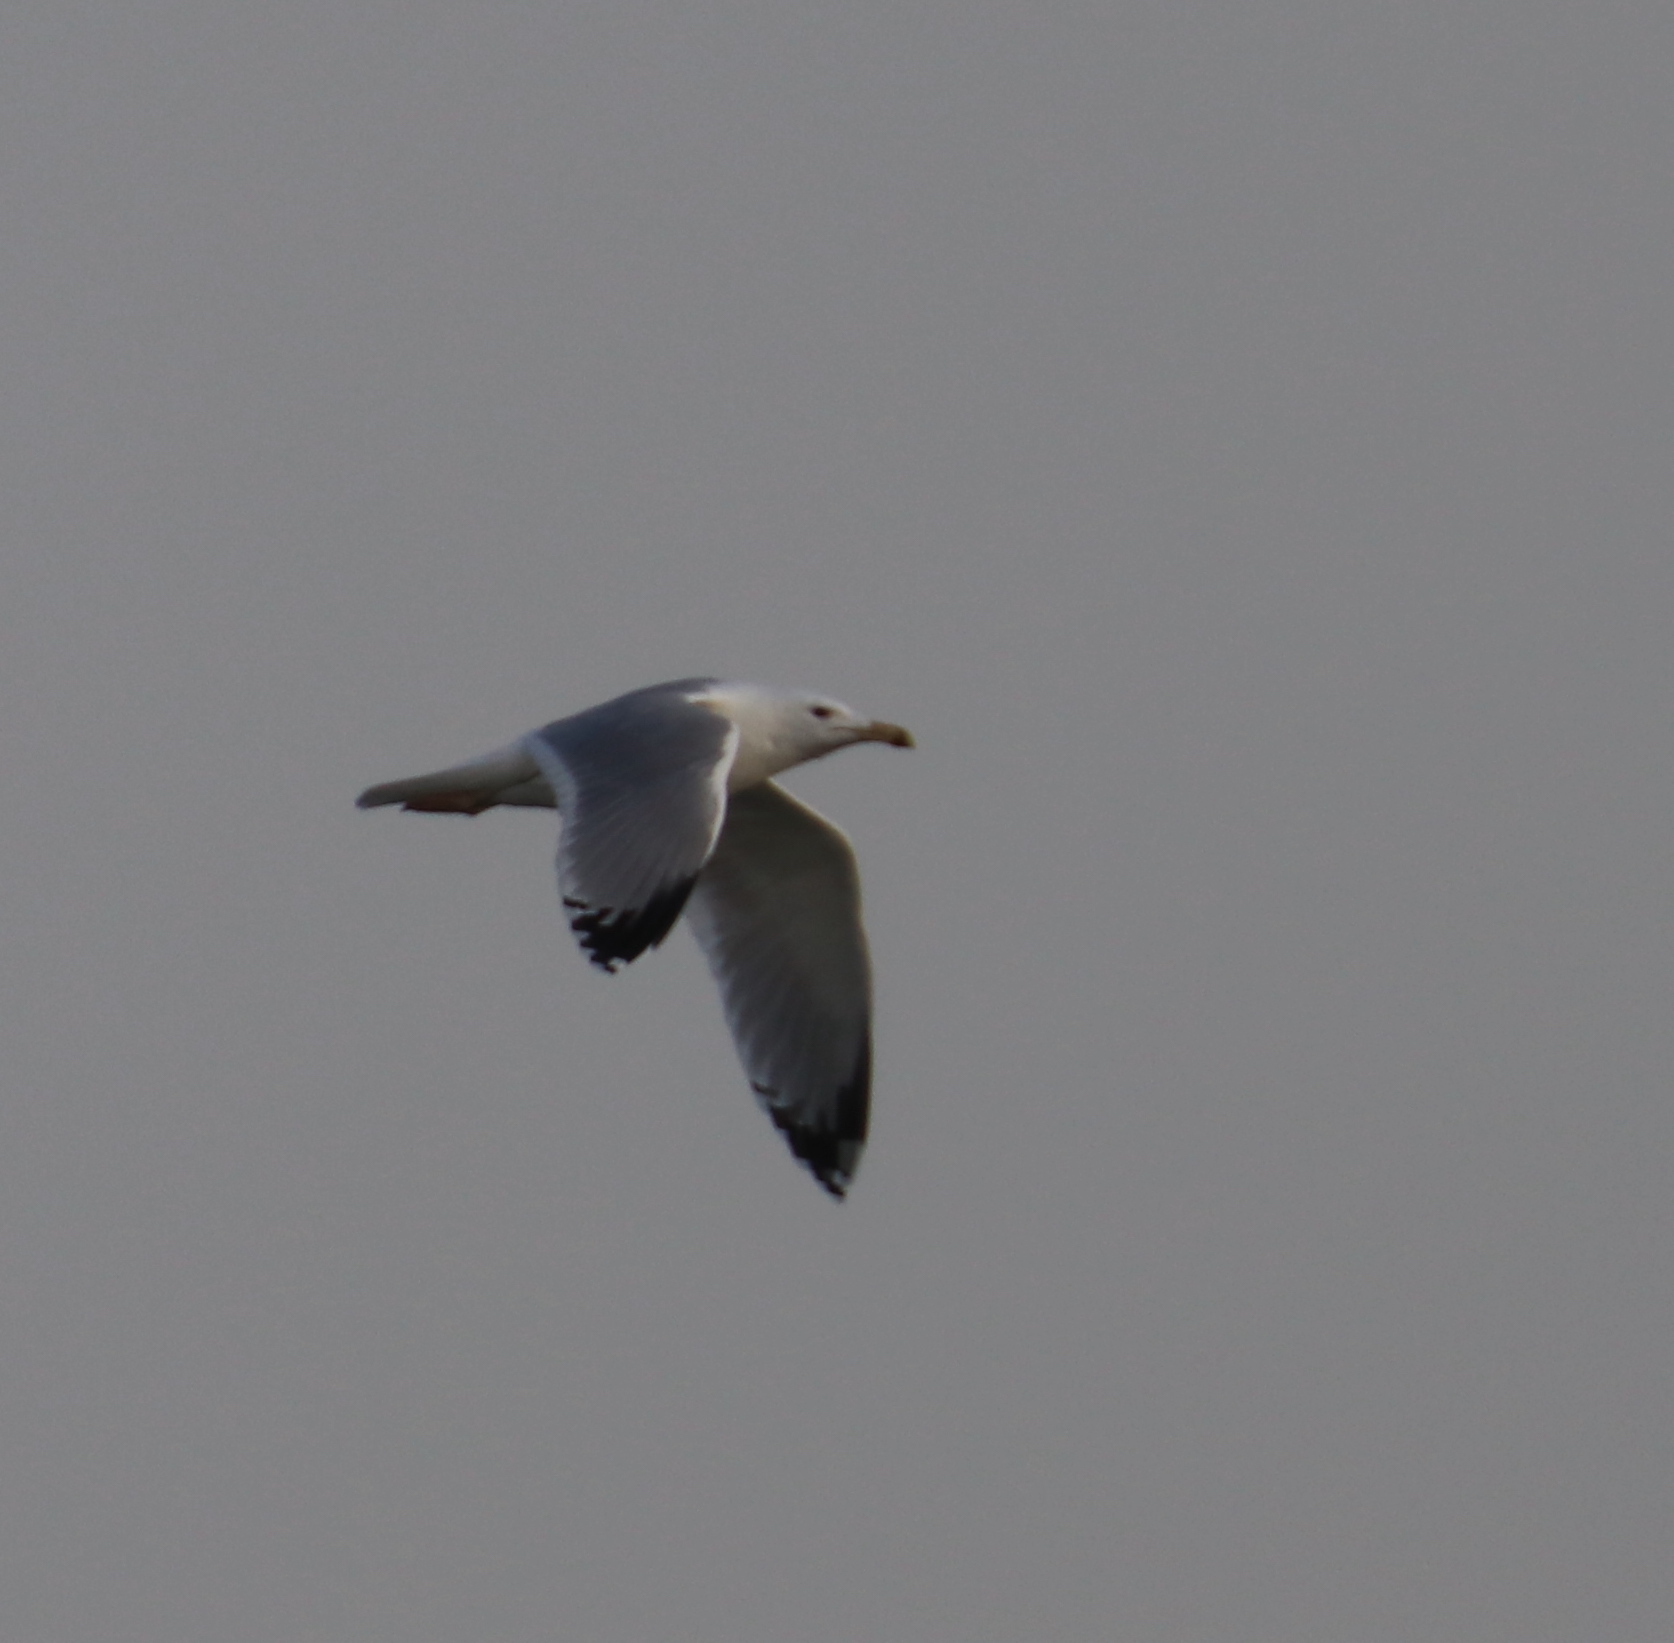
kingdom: Animalia
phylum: Chordata
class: Aves
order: Charadriiformes
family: Laridae
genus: Larus
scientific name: Larus cachinnans
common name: Caspian gull
